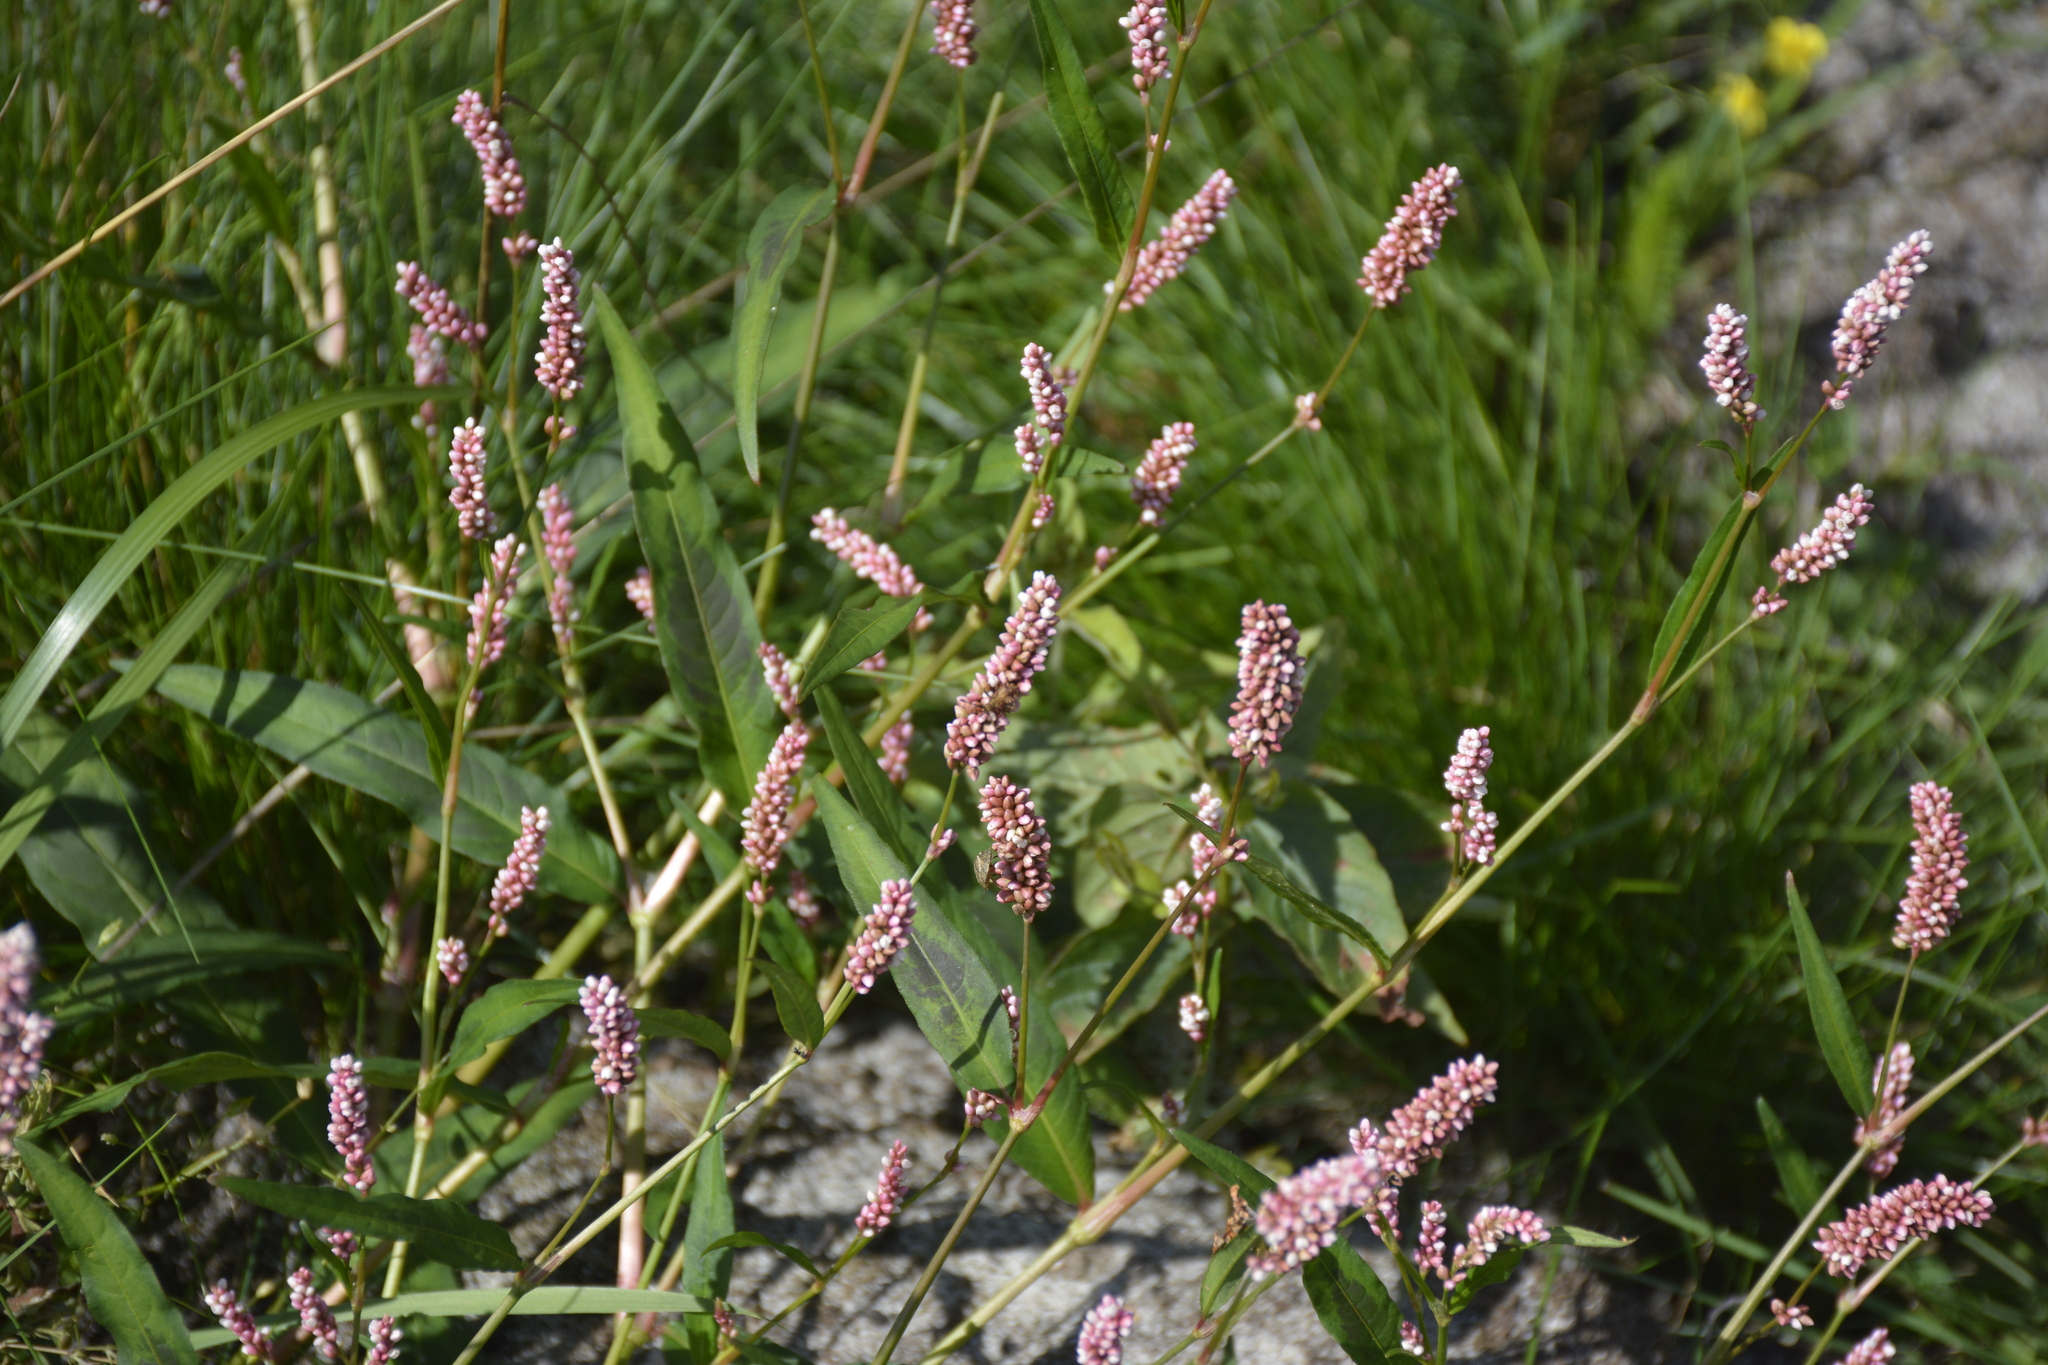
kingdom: Plantae
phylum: Tracheophyta
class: Magnoliopsida
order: Caryophyllales
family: Polygonaceae
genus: Persicaria
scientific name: Persicaria maculosa
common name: Redshank
